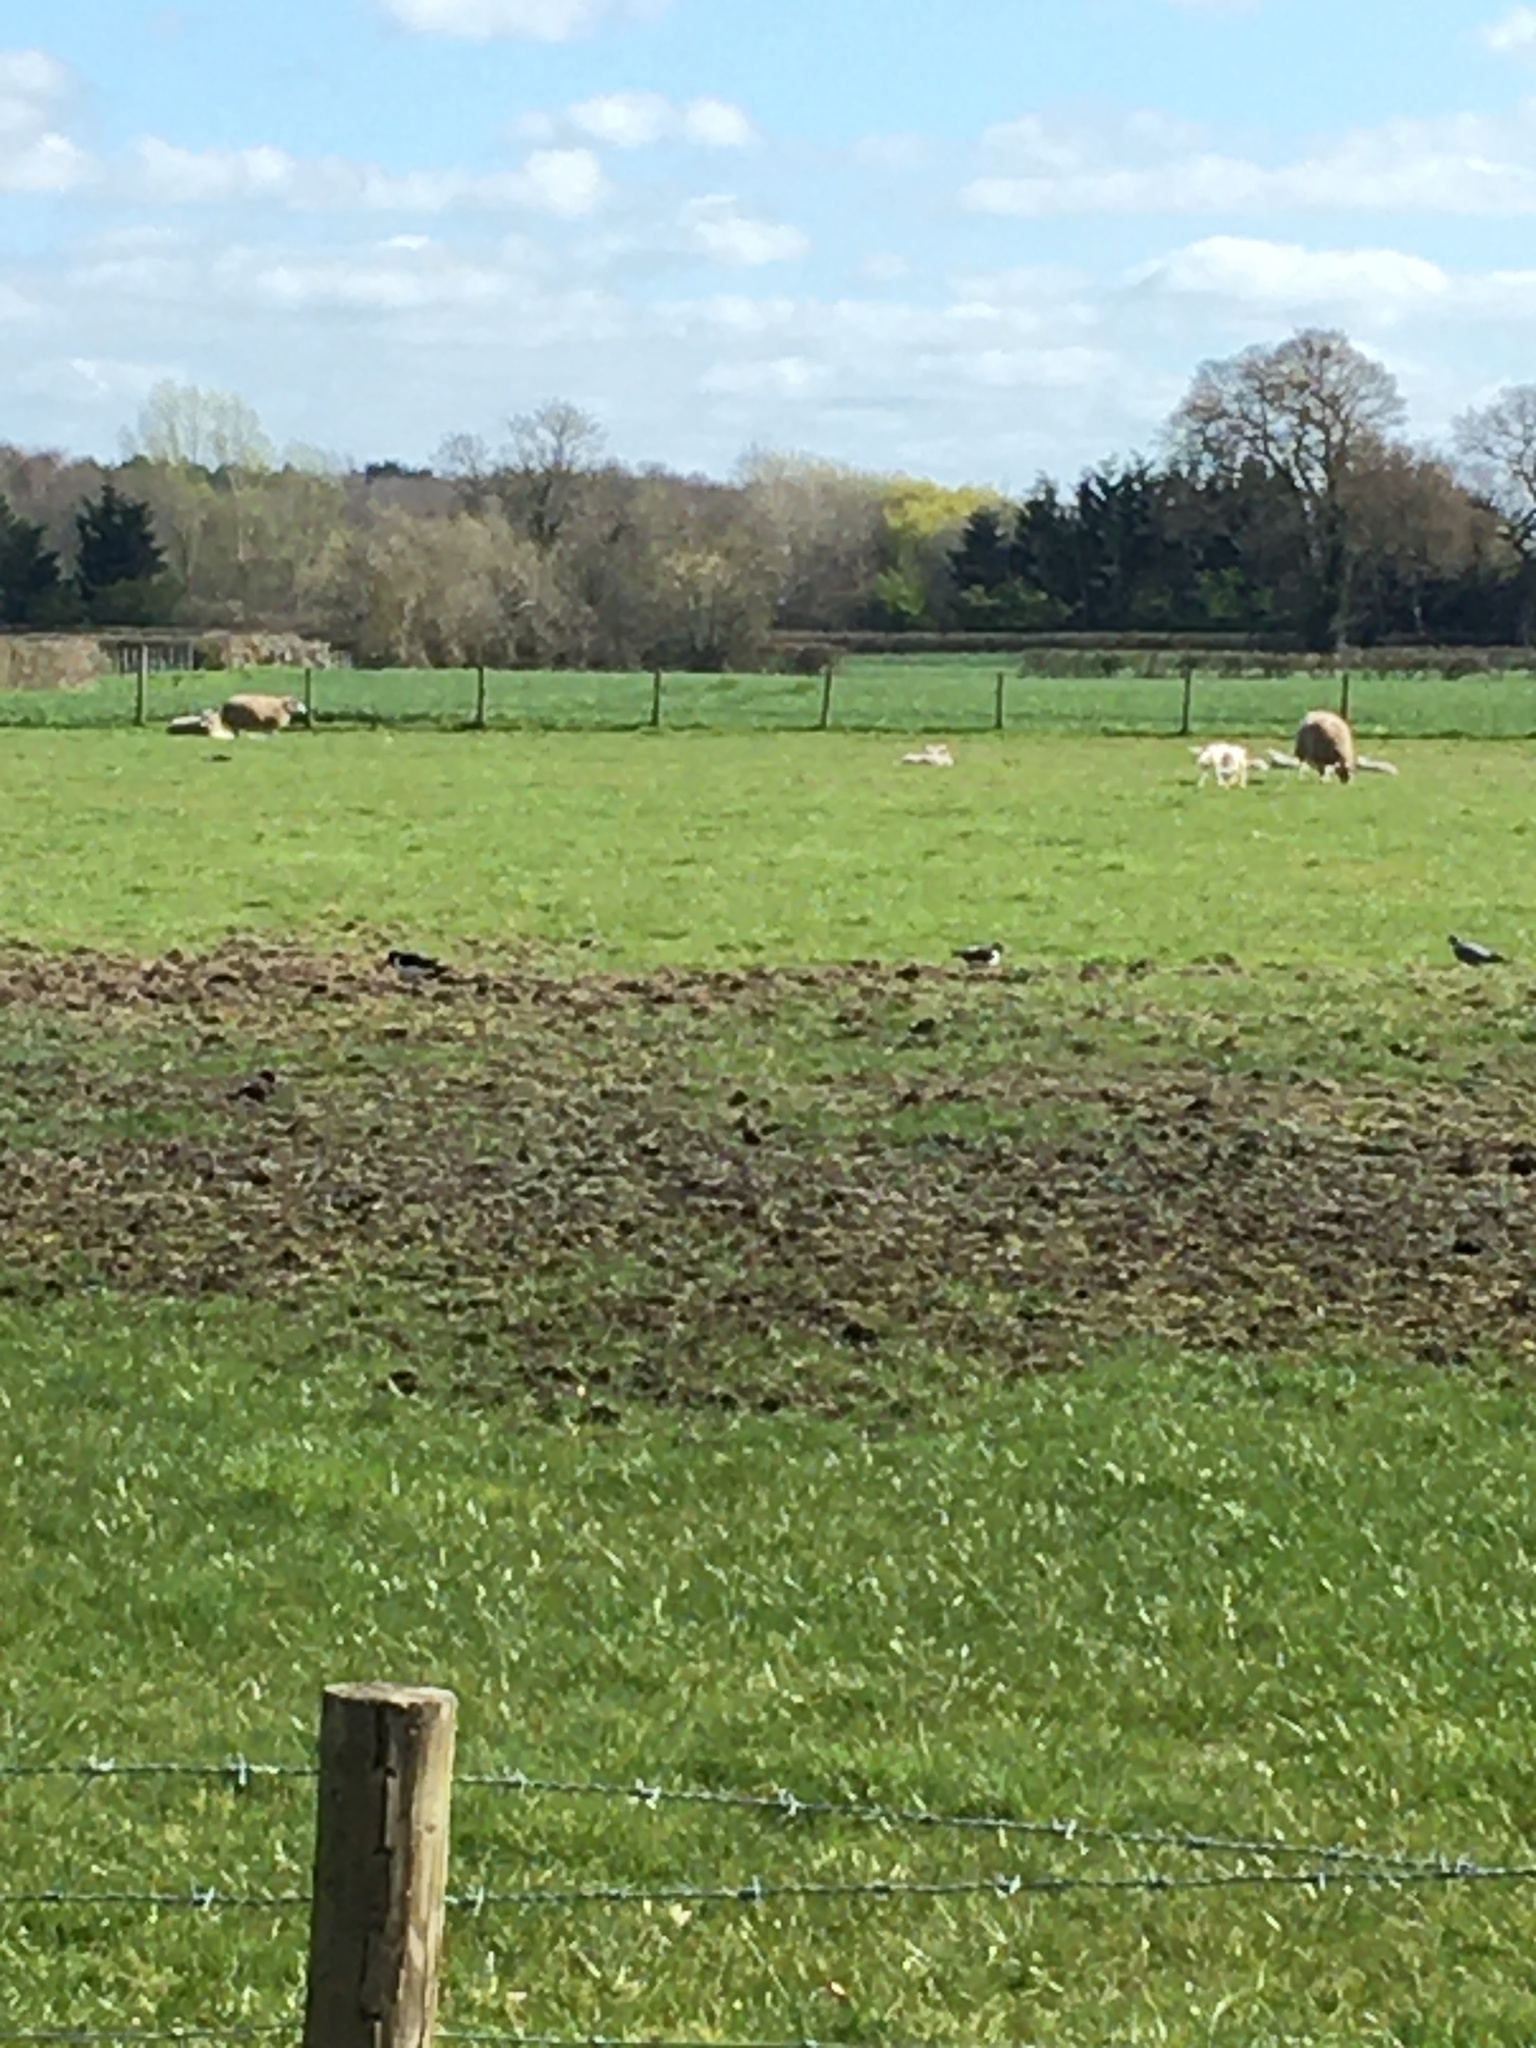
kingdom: Animalia
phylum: Chordata
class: Aves
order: Charadriiformes
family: Haematopodidae
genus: Haematopus
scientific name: Haematopus ostralegus
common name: Eurasian oystercatcher
